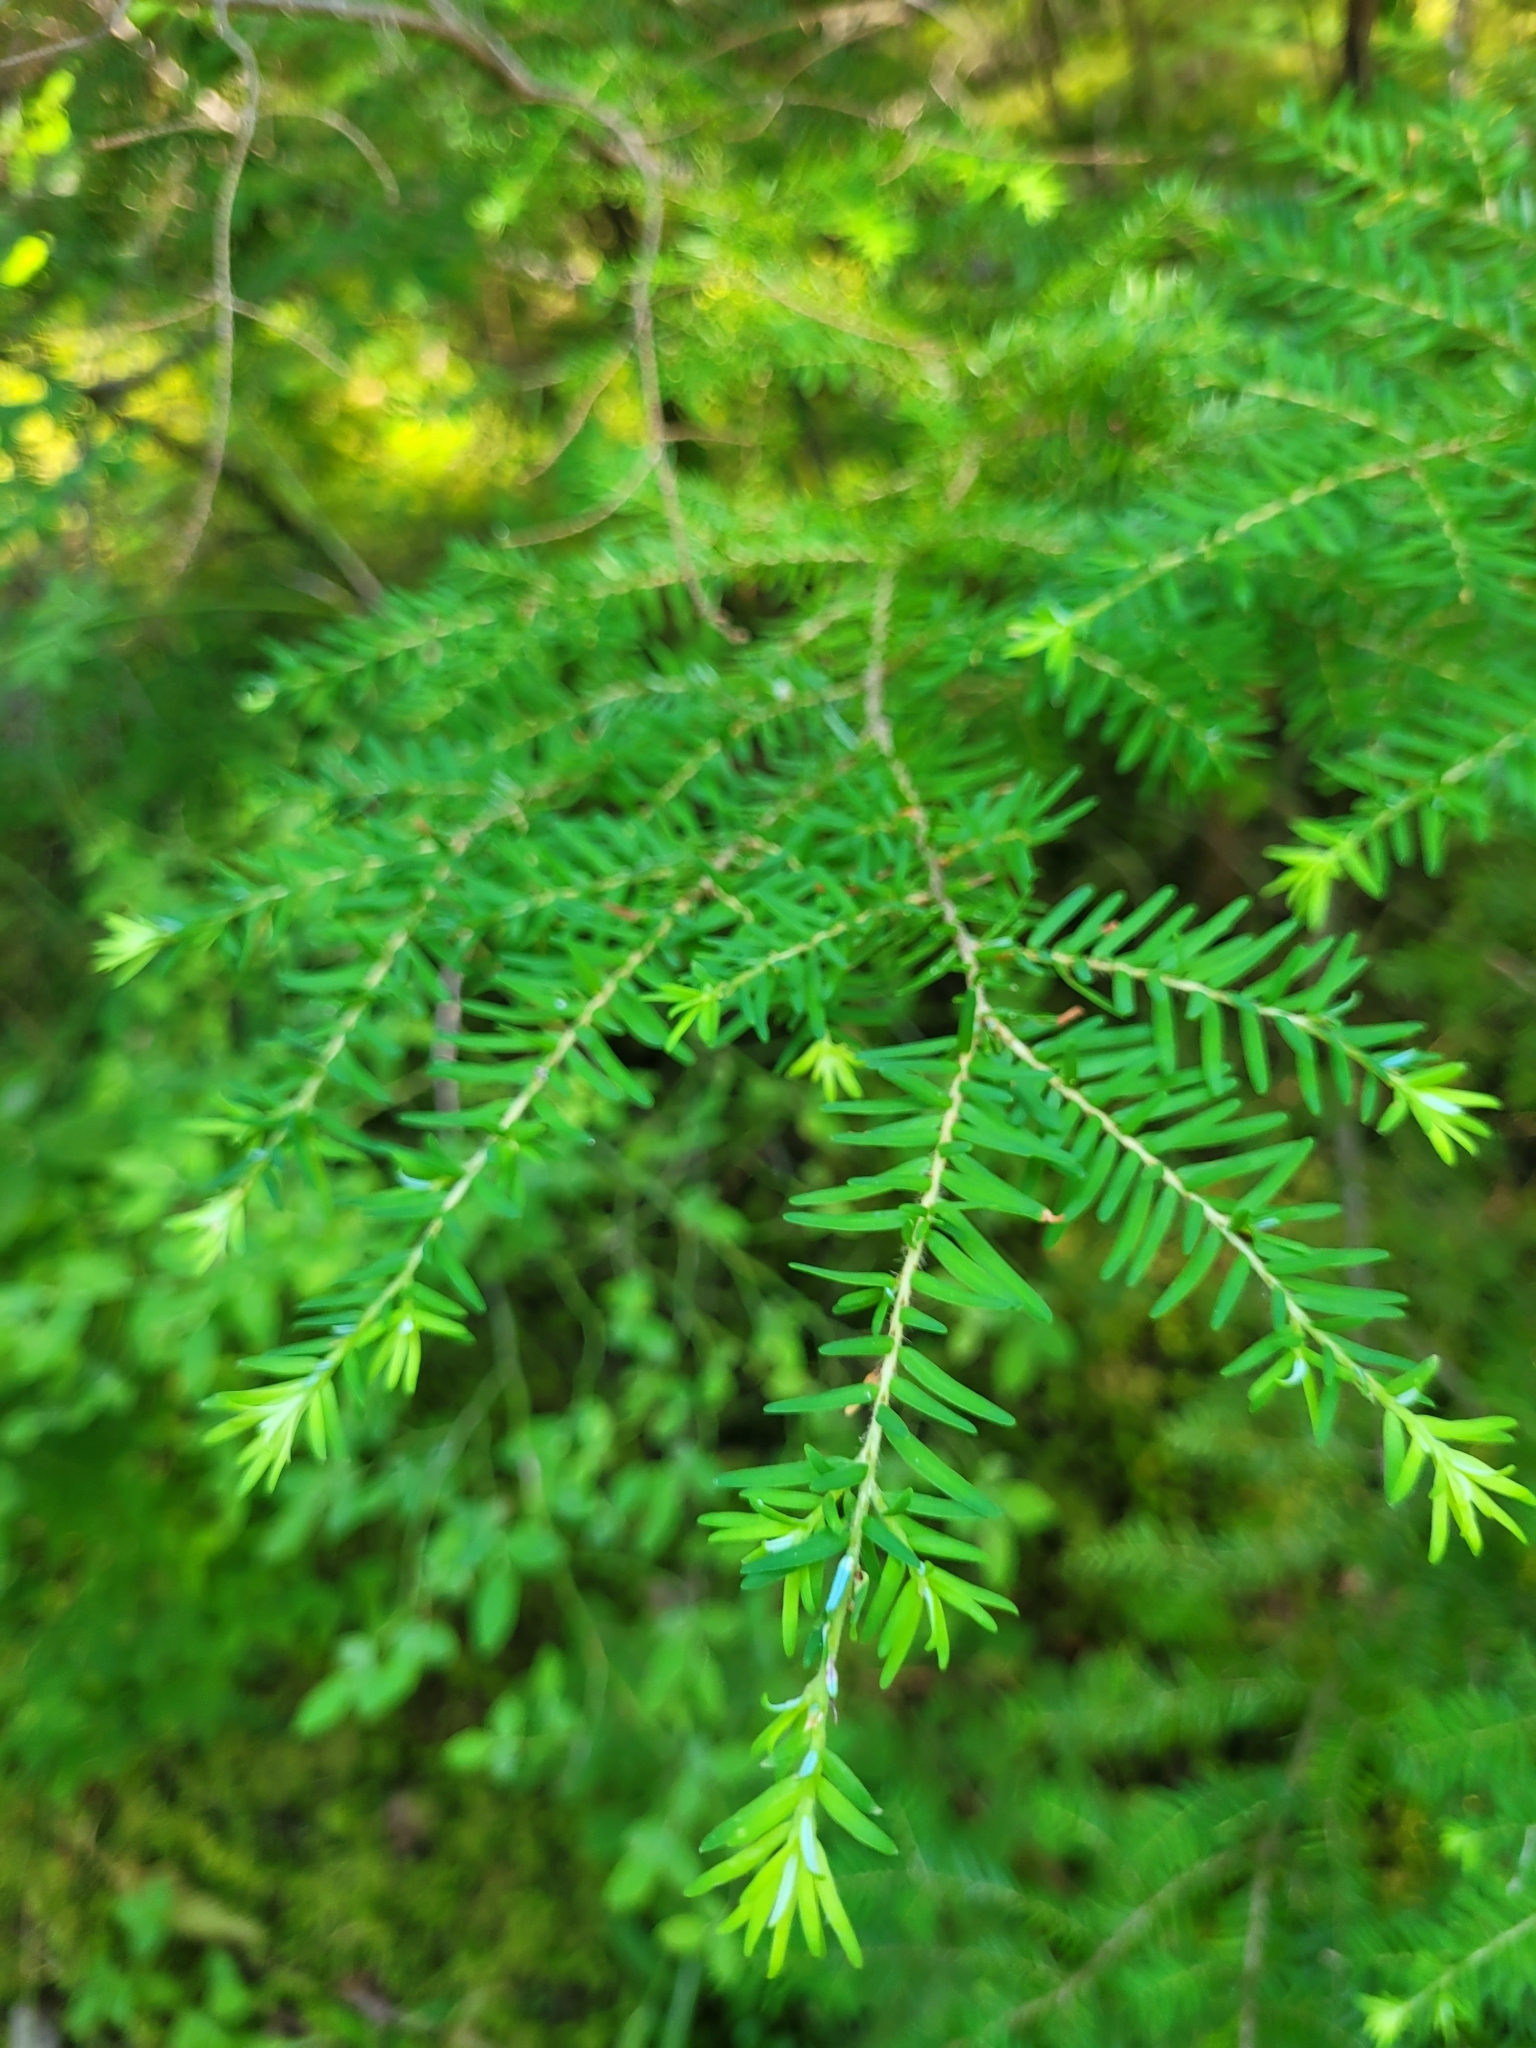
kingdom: Plantae
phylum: Tracheophyta
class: Pinopsida
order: Pinales
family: Pinaceae
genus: Tsuga
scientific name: Tsuga heterophylla
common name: Western hemlock
